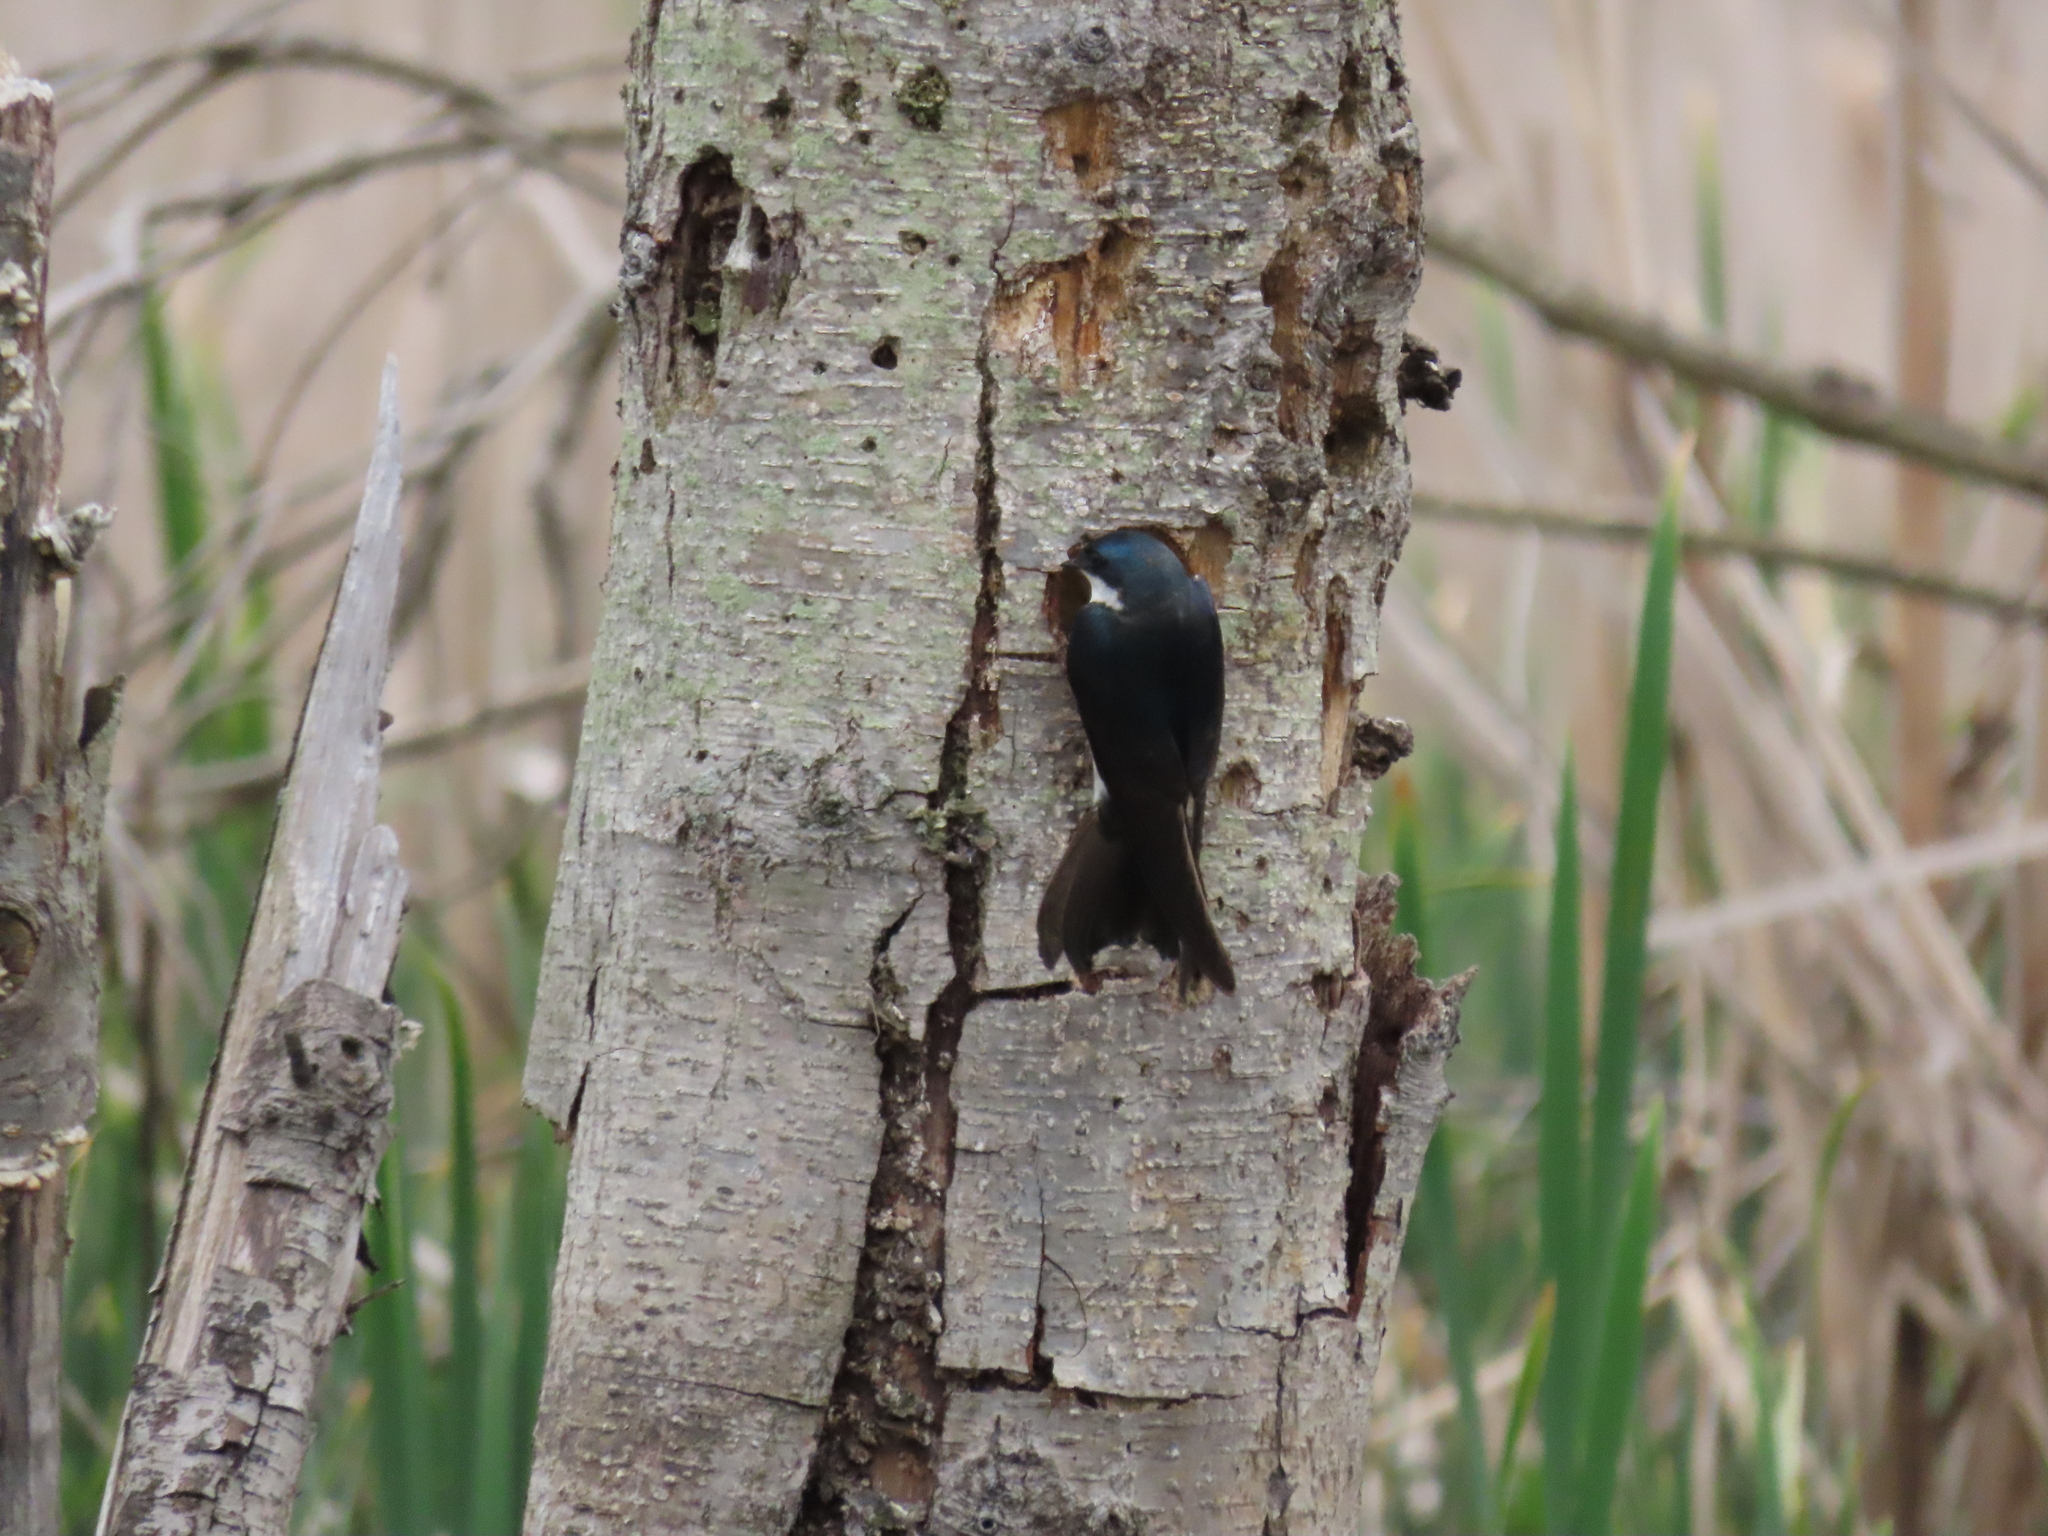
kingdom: Animalia
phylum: Chordata
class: Aves
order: Passeriformes
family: Hirundinidae
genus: Tachycineta
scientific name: Tachycineta bicolor
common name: Tree swallow
